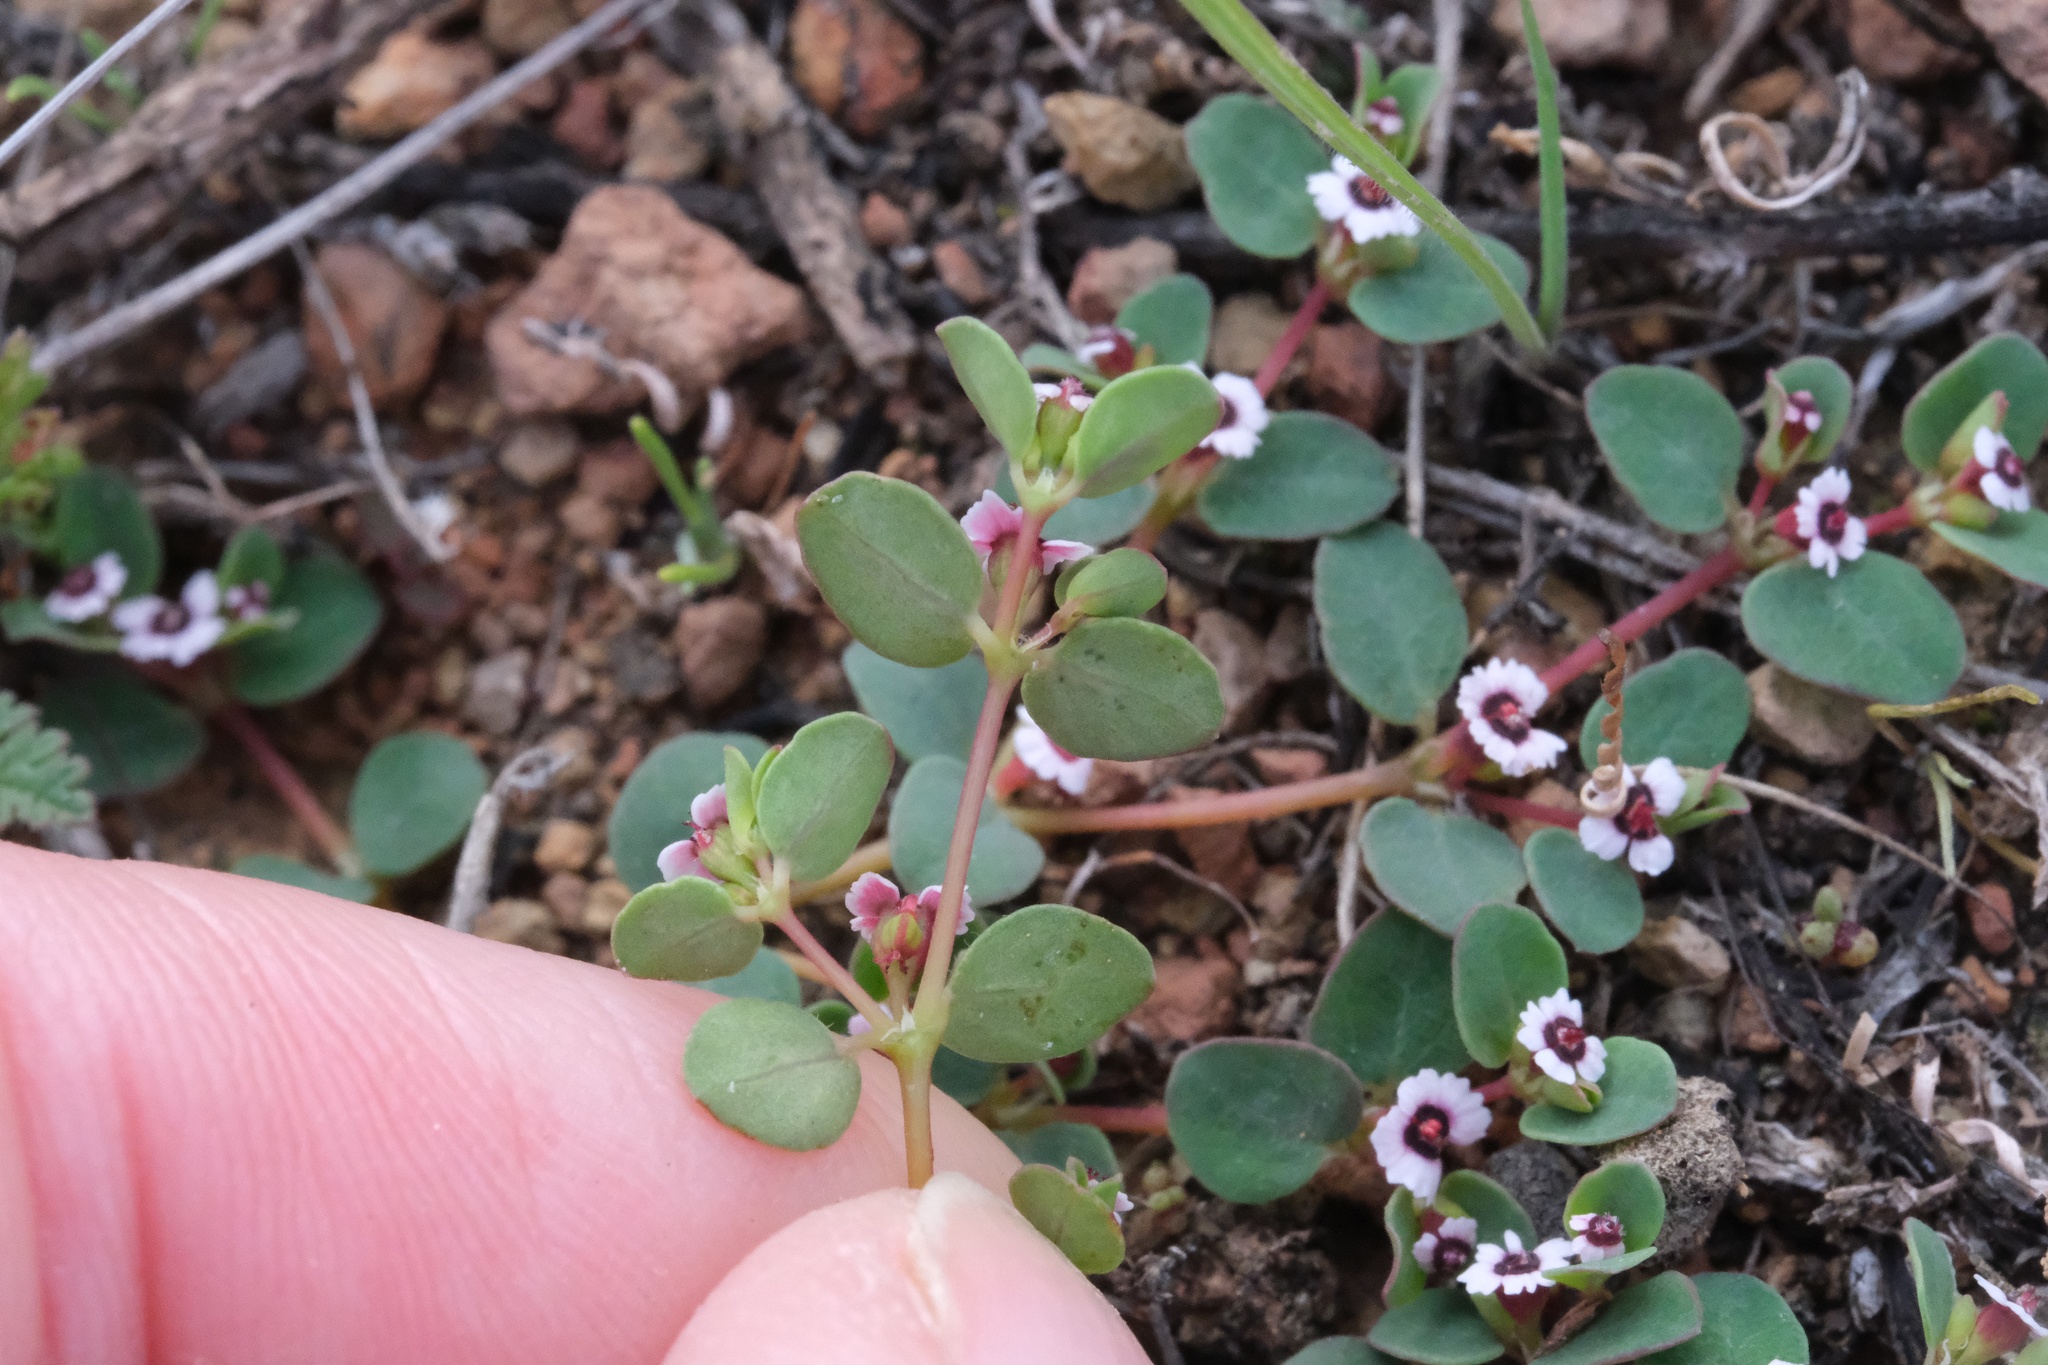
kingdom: Plantae
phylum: Tracheophyta
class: Magnoliopsida
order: Malpighiales
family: Euphorbiaceae
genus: Euphorbia
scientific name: Euphorbia polycarpa
